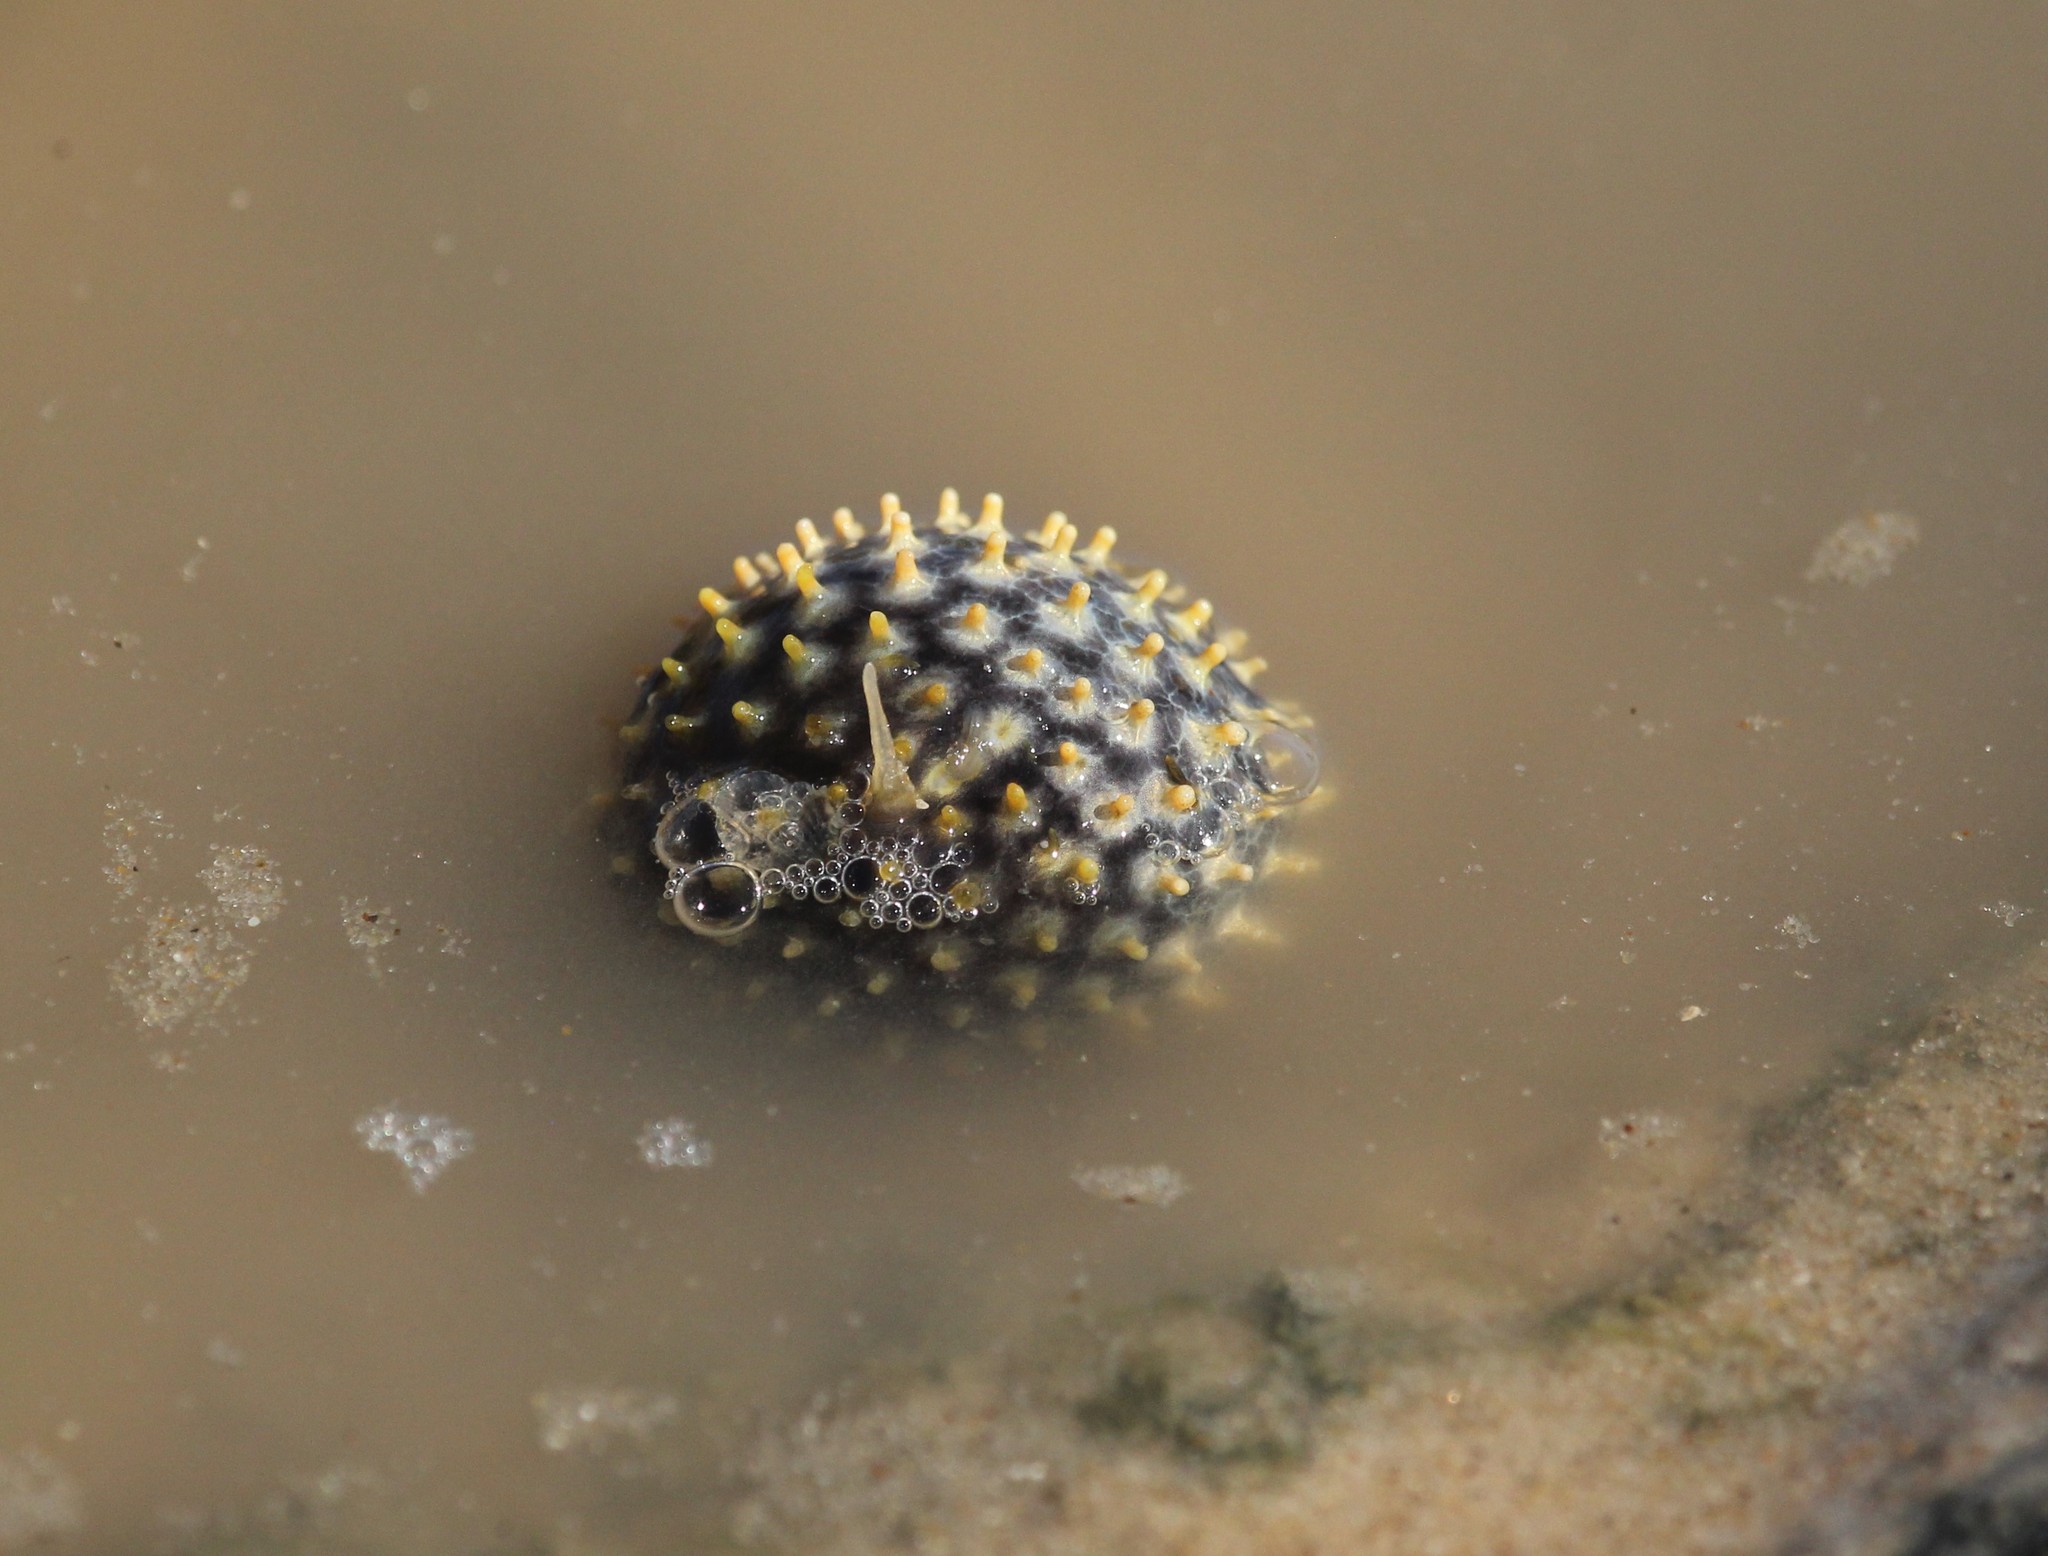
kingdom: Animalia
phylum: Chordata
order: Tetraodontiformes
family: Diodontidae
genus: Chilomycterus
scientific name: Chilomycterus spinosus
